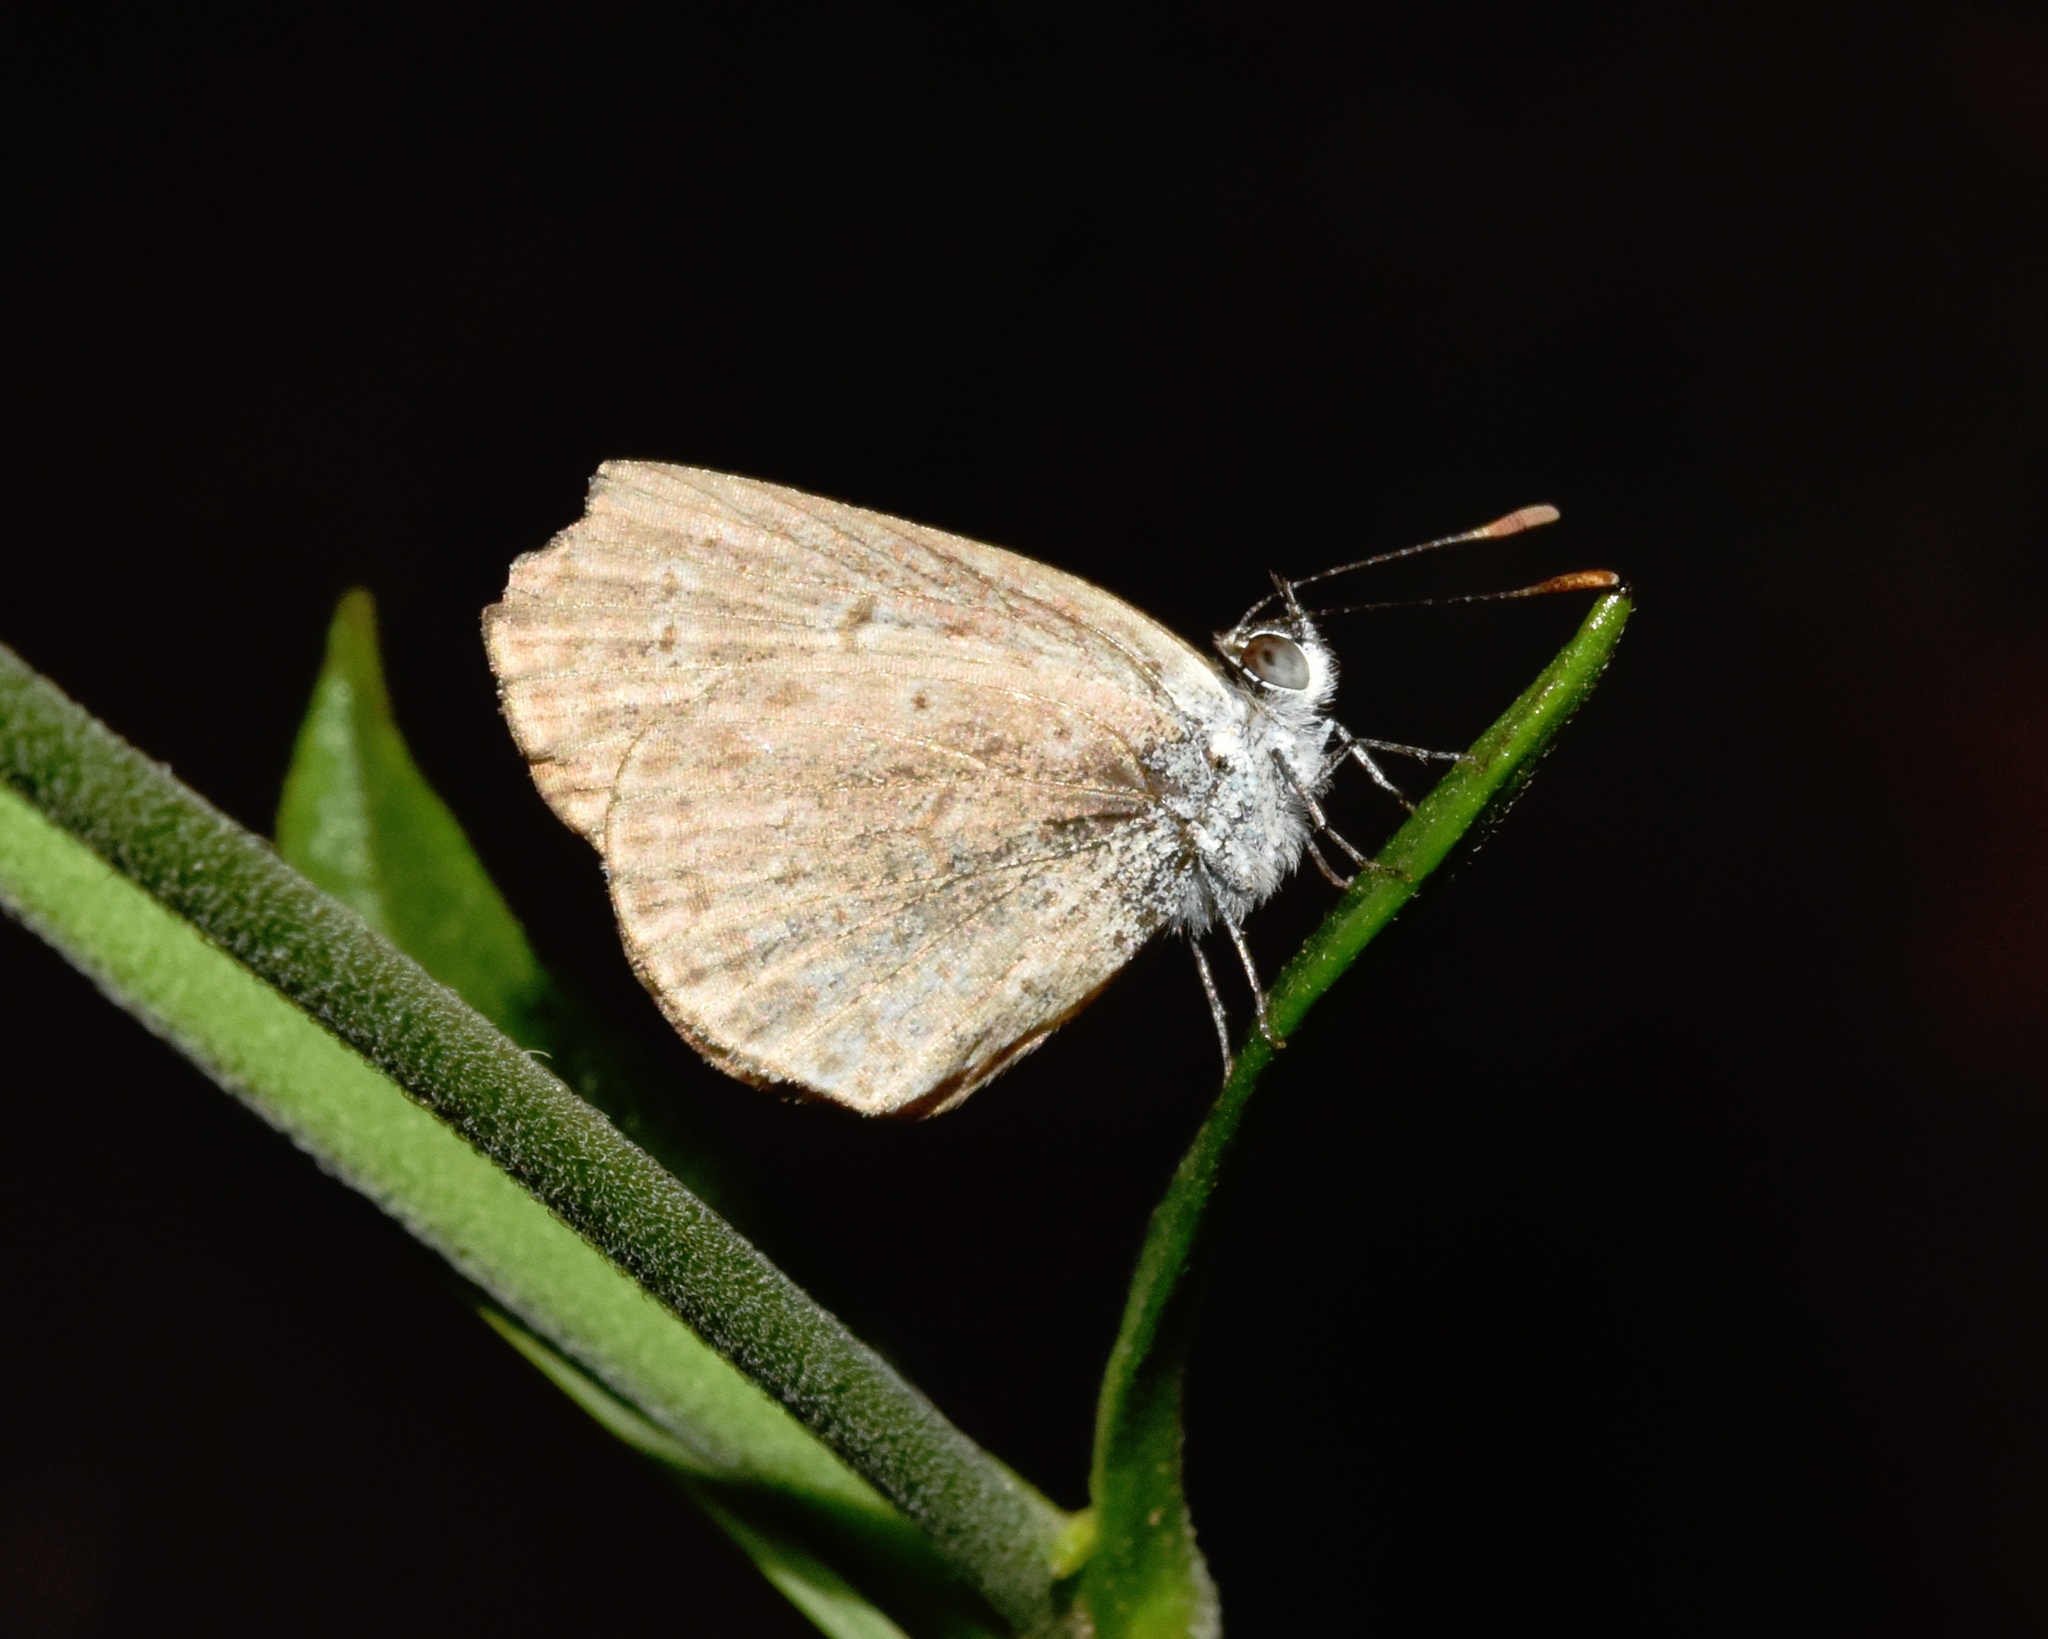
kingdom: Animalia
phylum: Arthropoda
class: Insecta
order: Lepidoptera
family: Lycaenidae
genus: Zizeeria
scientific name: Zizeeria knysna
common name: African grass blue
